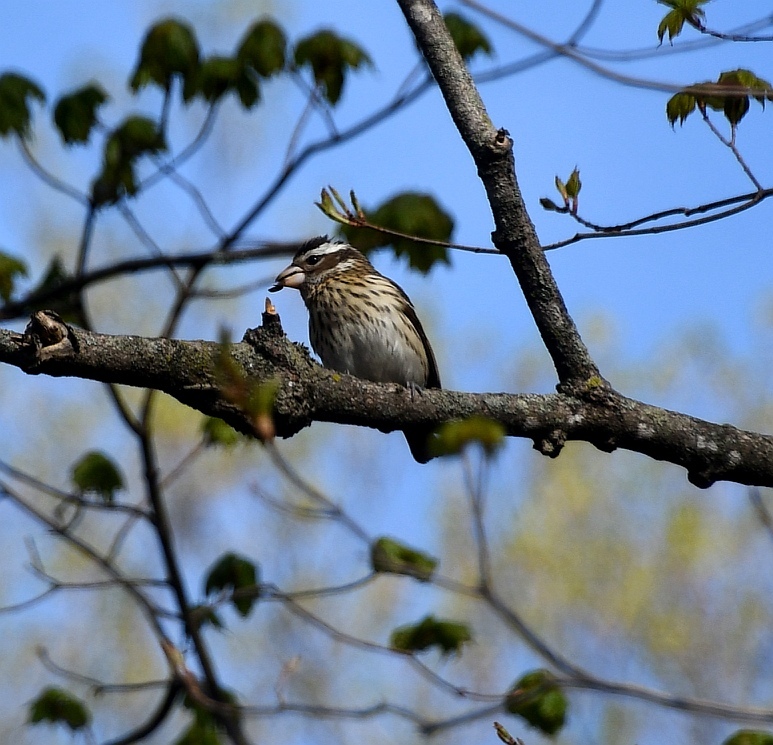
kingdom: Animalia
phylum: Chordata
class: Aves
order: Passeriformes
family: Cardinalidae
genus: Pheucticus
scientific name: Pheucticus ludovicianus
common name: Rose-breasted grosbeak
